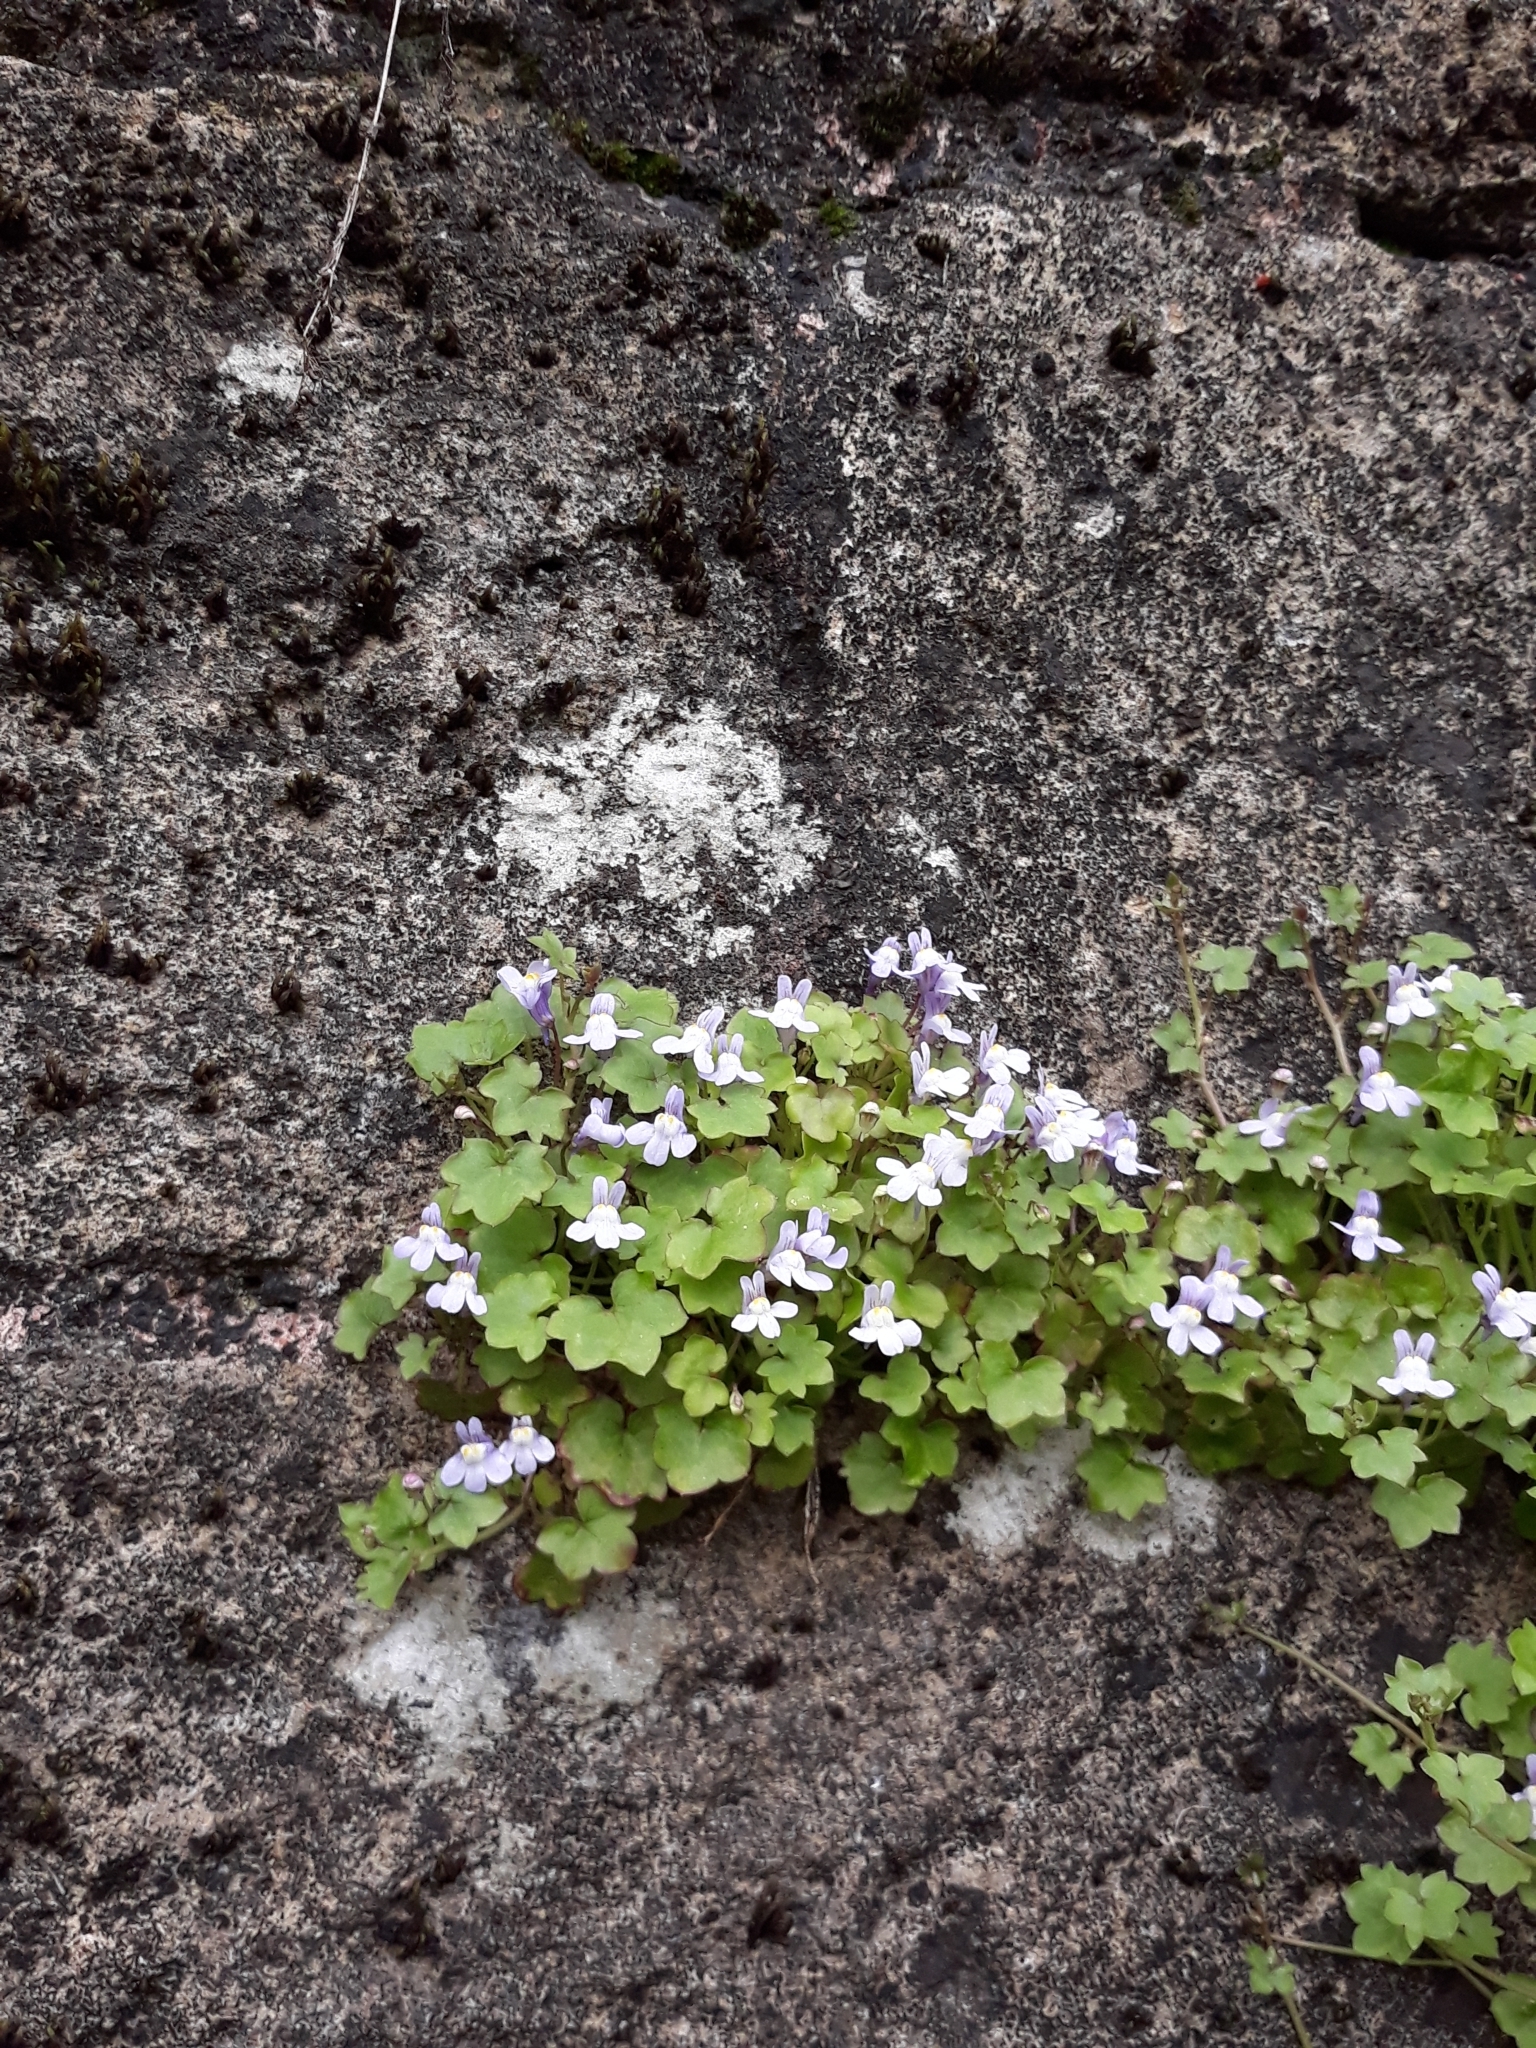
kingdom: Plantae
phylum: Tracheophyta
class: Magnoliopsida
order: Lamiales
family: Plantaginaceae
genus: Cymbalaria
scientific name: Cymbalaria muralis
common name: Ivy-leaved toadflax
